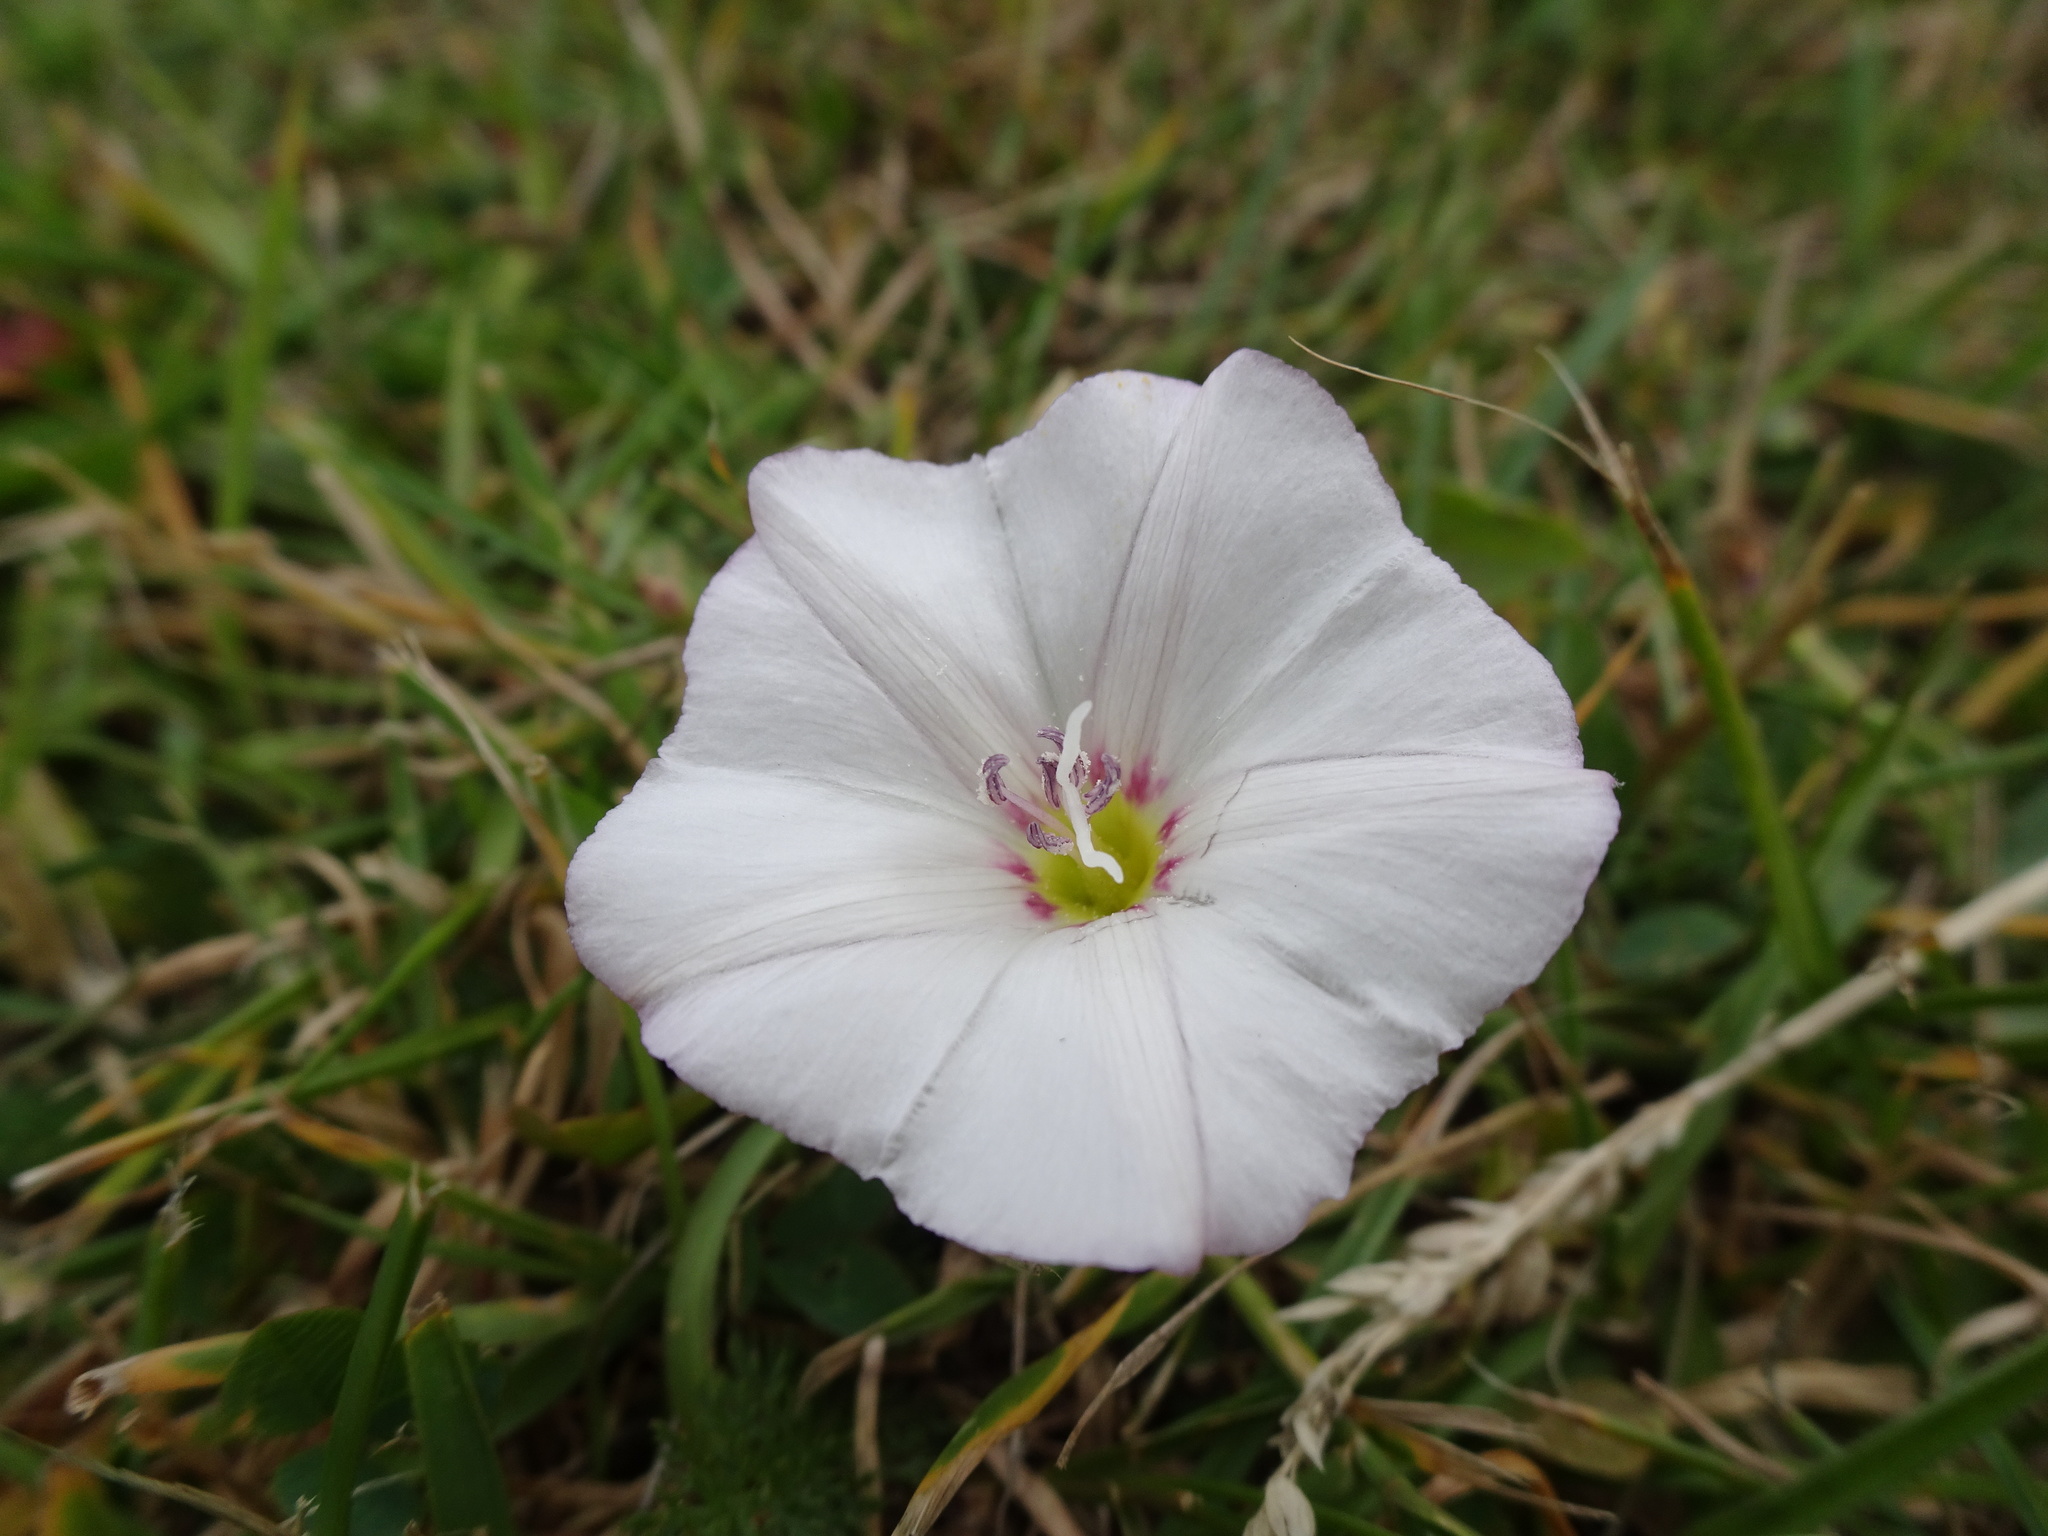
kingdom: Plantae
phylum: Tracheophyta
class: Magnoliopsida
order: Solanales
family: Convolvulaceae
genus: Convolvulus
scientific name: Convolvulus arvensis
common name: Field bindweed
